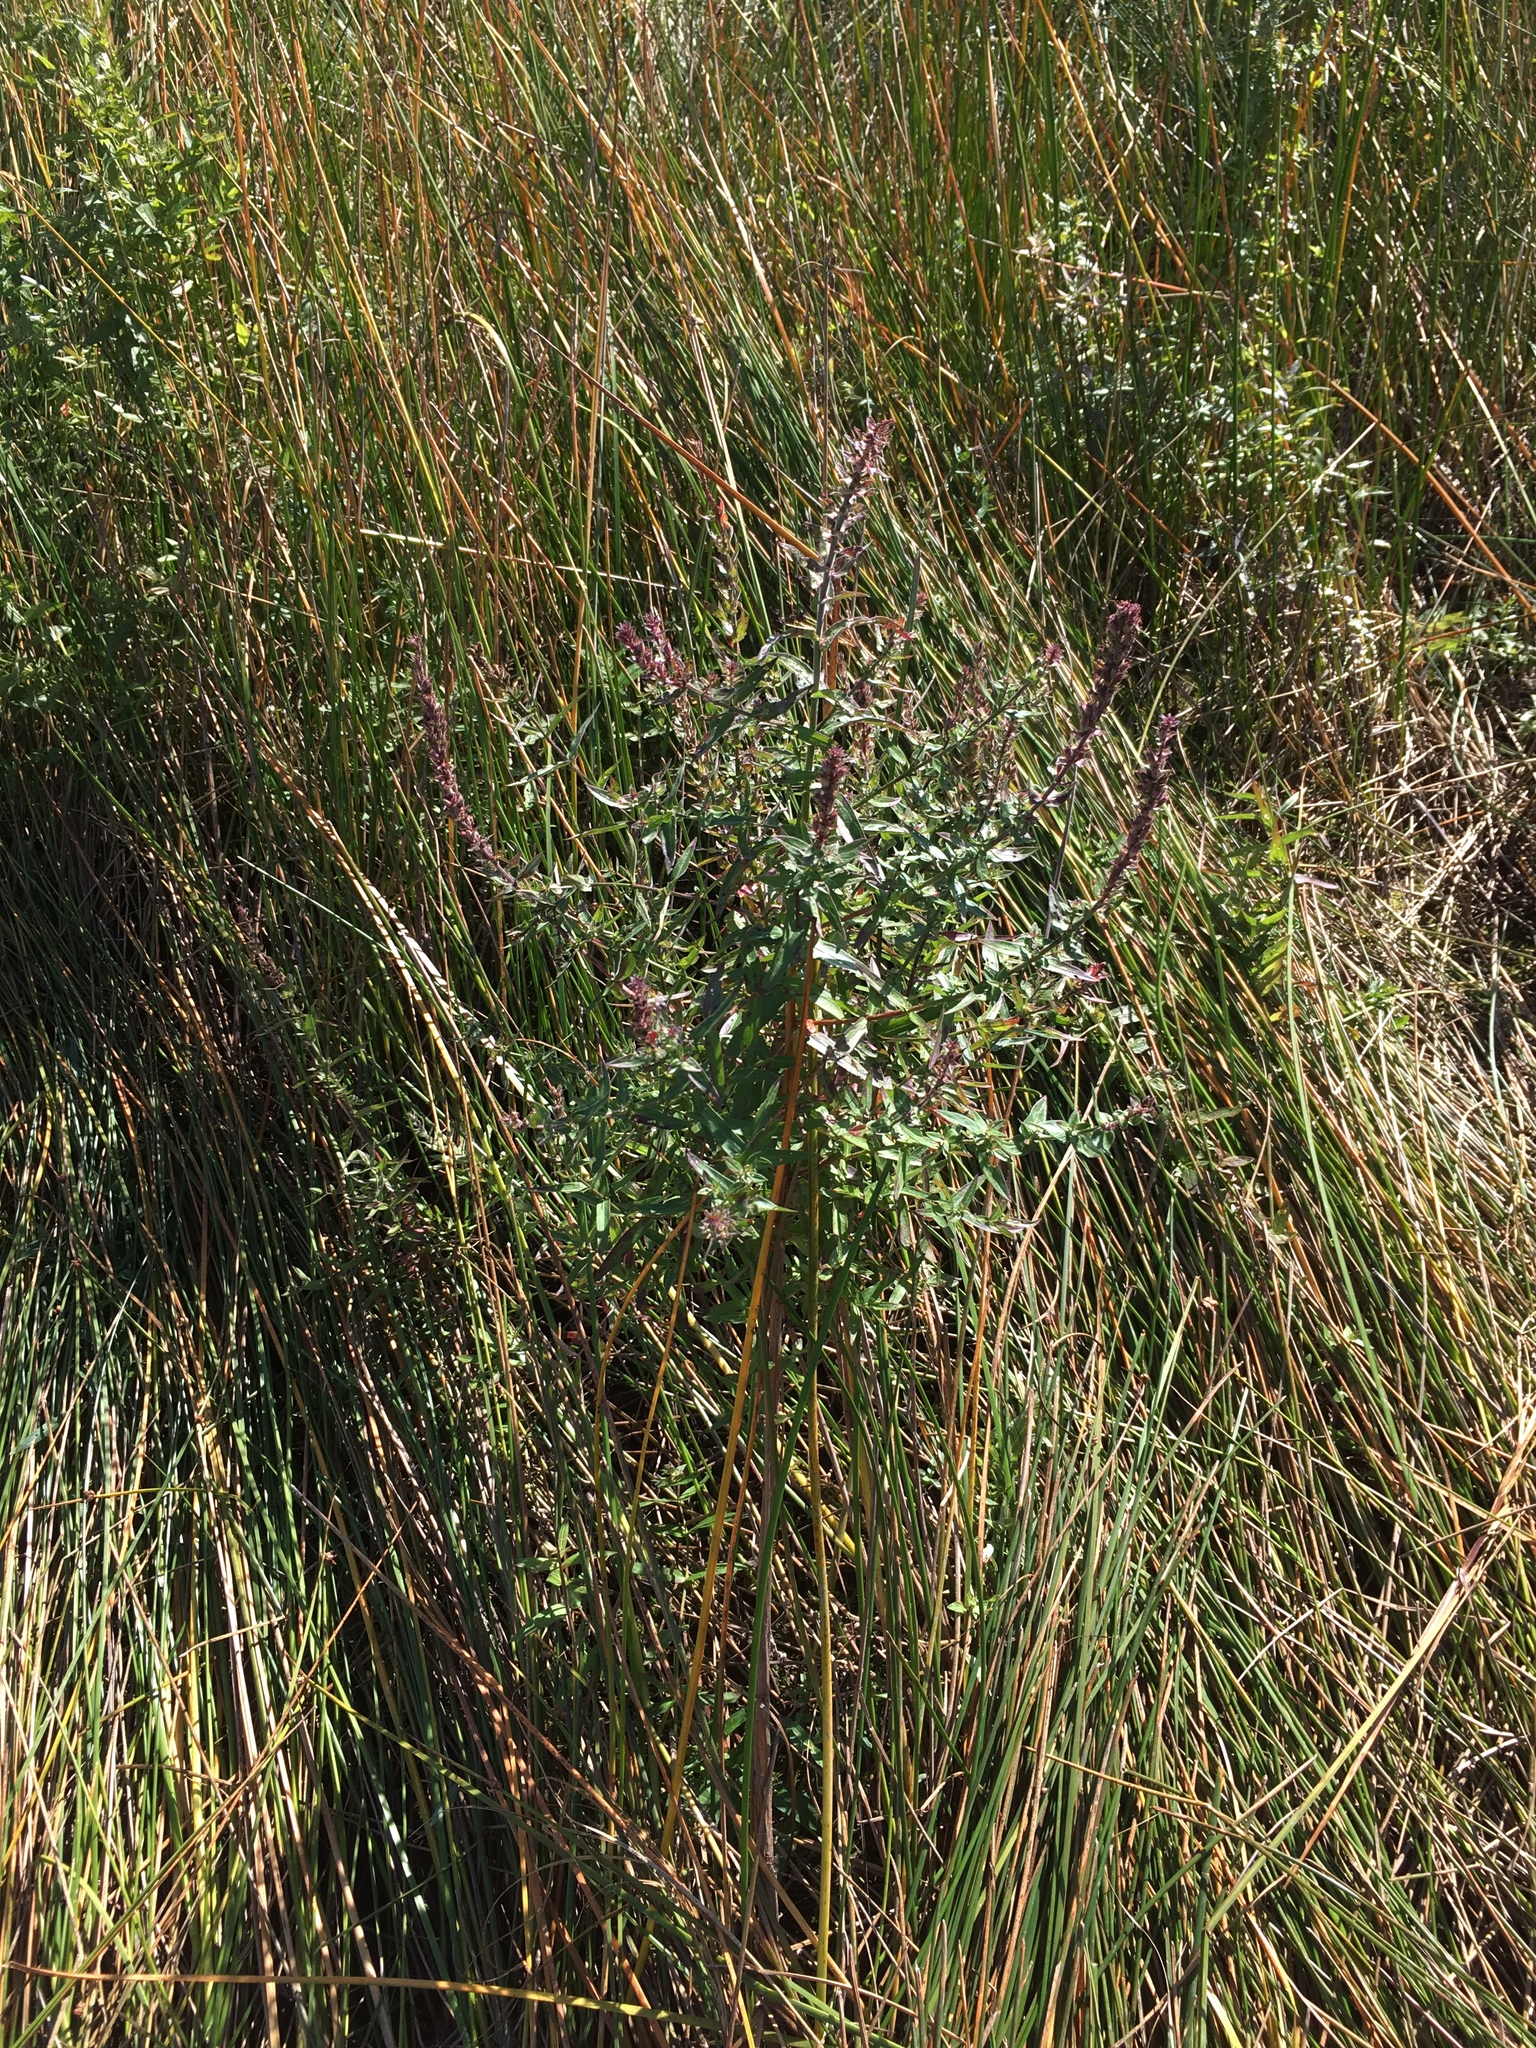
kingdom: Plantae
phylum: Tracheophyta
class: Magnoliopsida
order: Myrtales
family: Lythraceae
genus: Lythrum
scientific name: Lythrum salicaria
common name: Purple loosestrife
